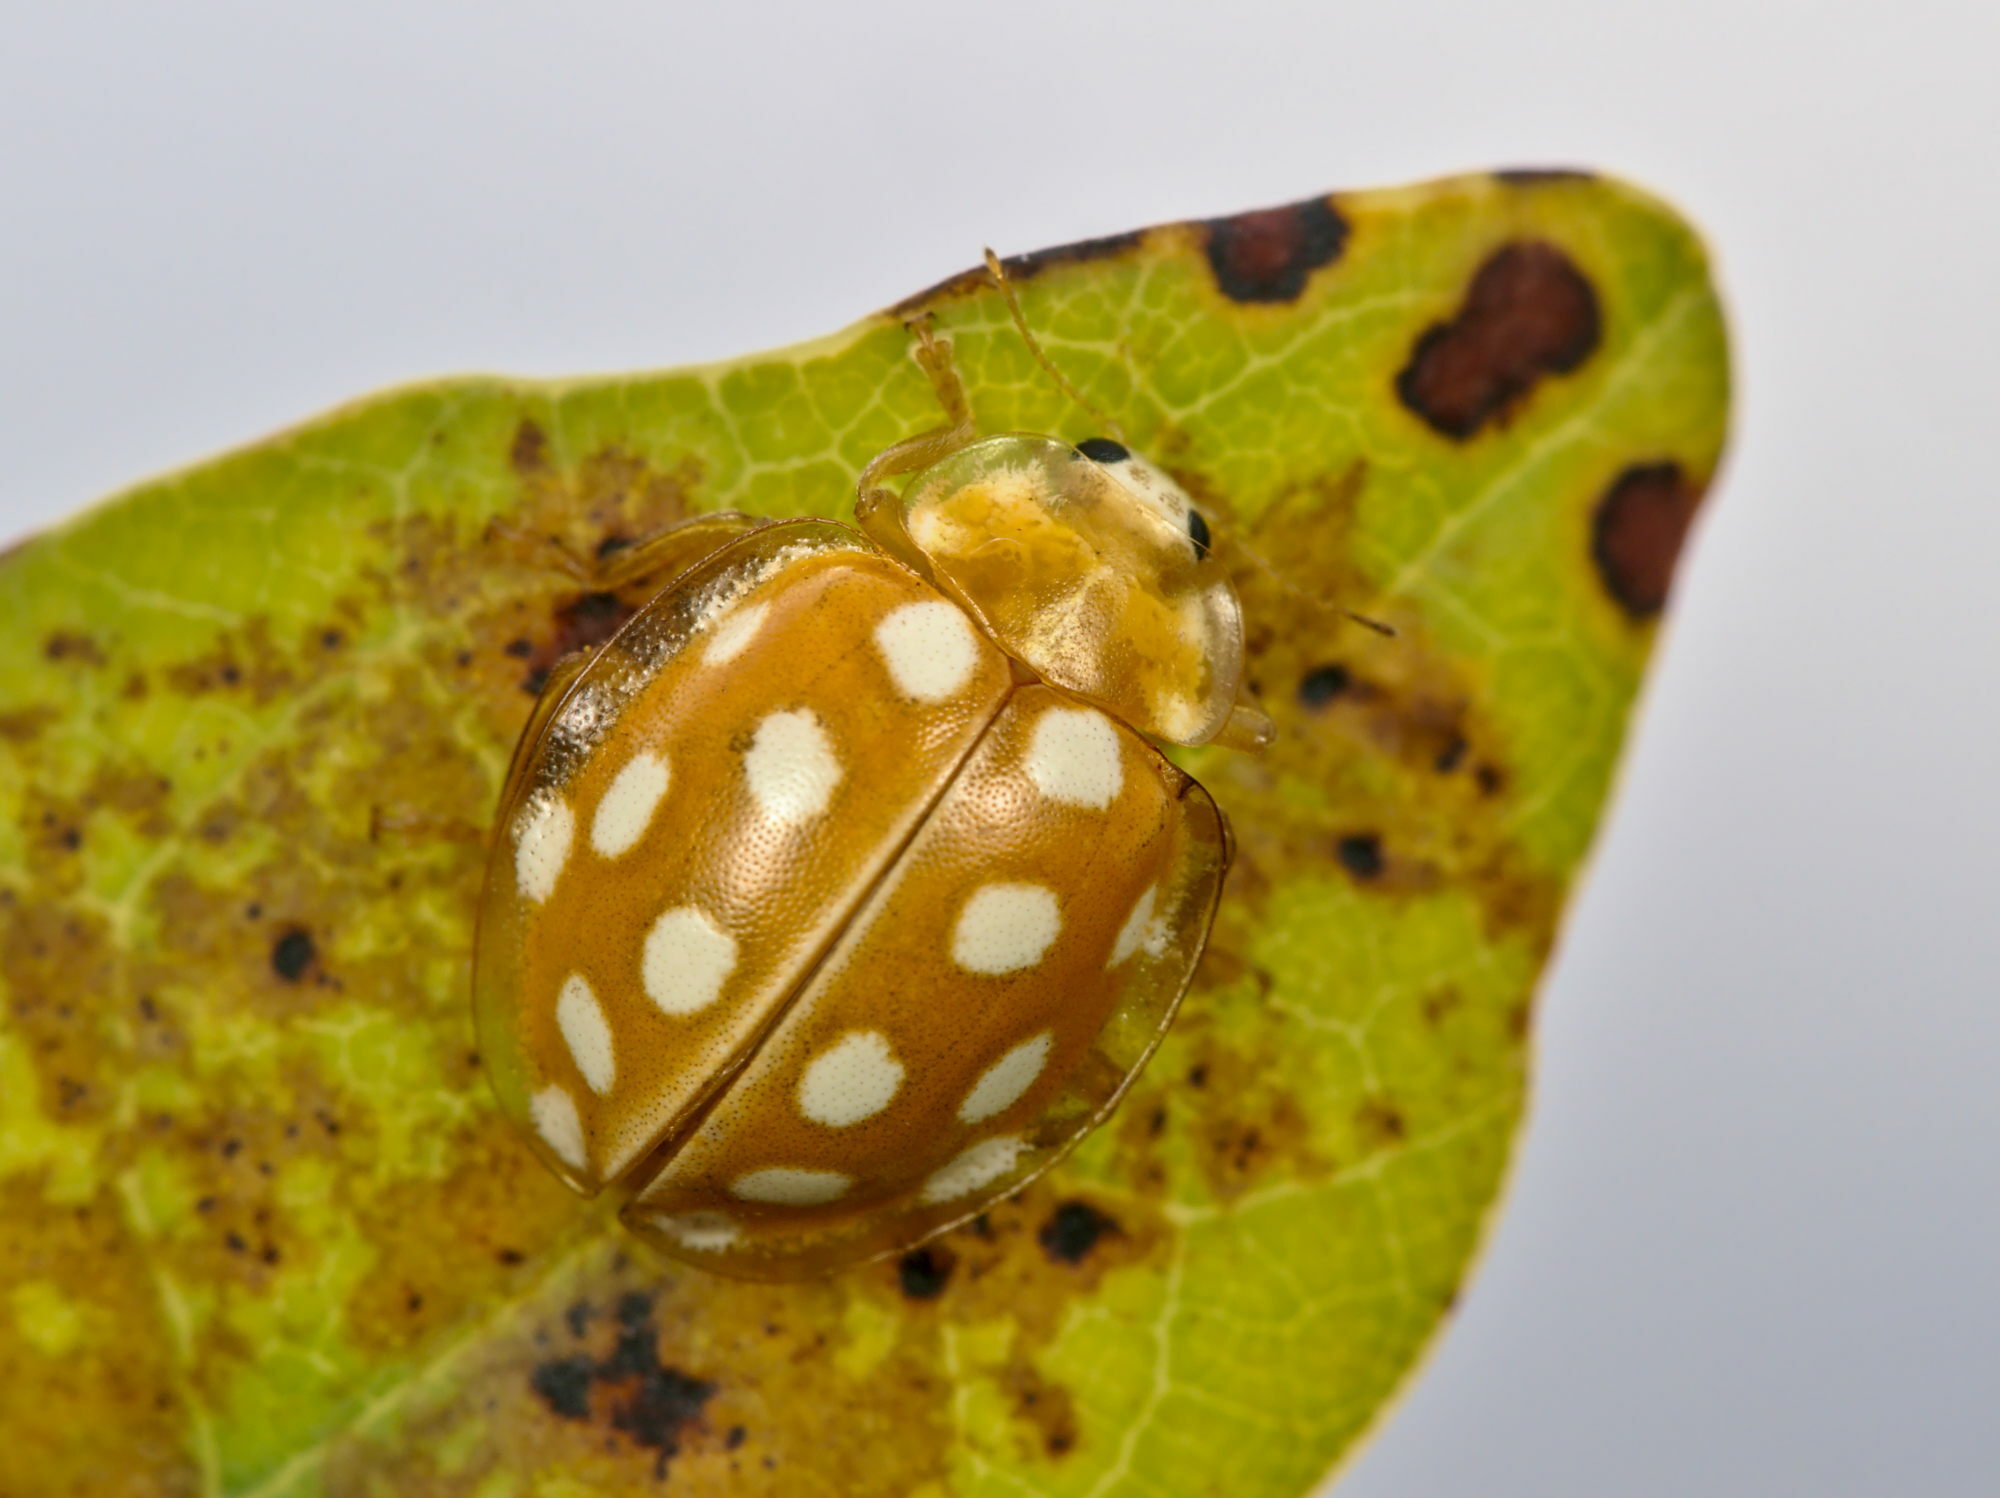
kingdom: Animalia
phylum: Arthropoda
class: Insecta
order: Coleoptera
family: Coccinellidae
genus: Halyzia
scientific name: Halyzia sedecimguttata
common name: Orange ladybird
